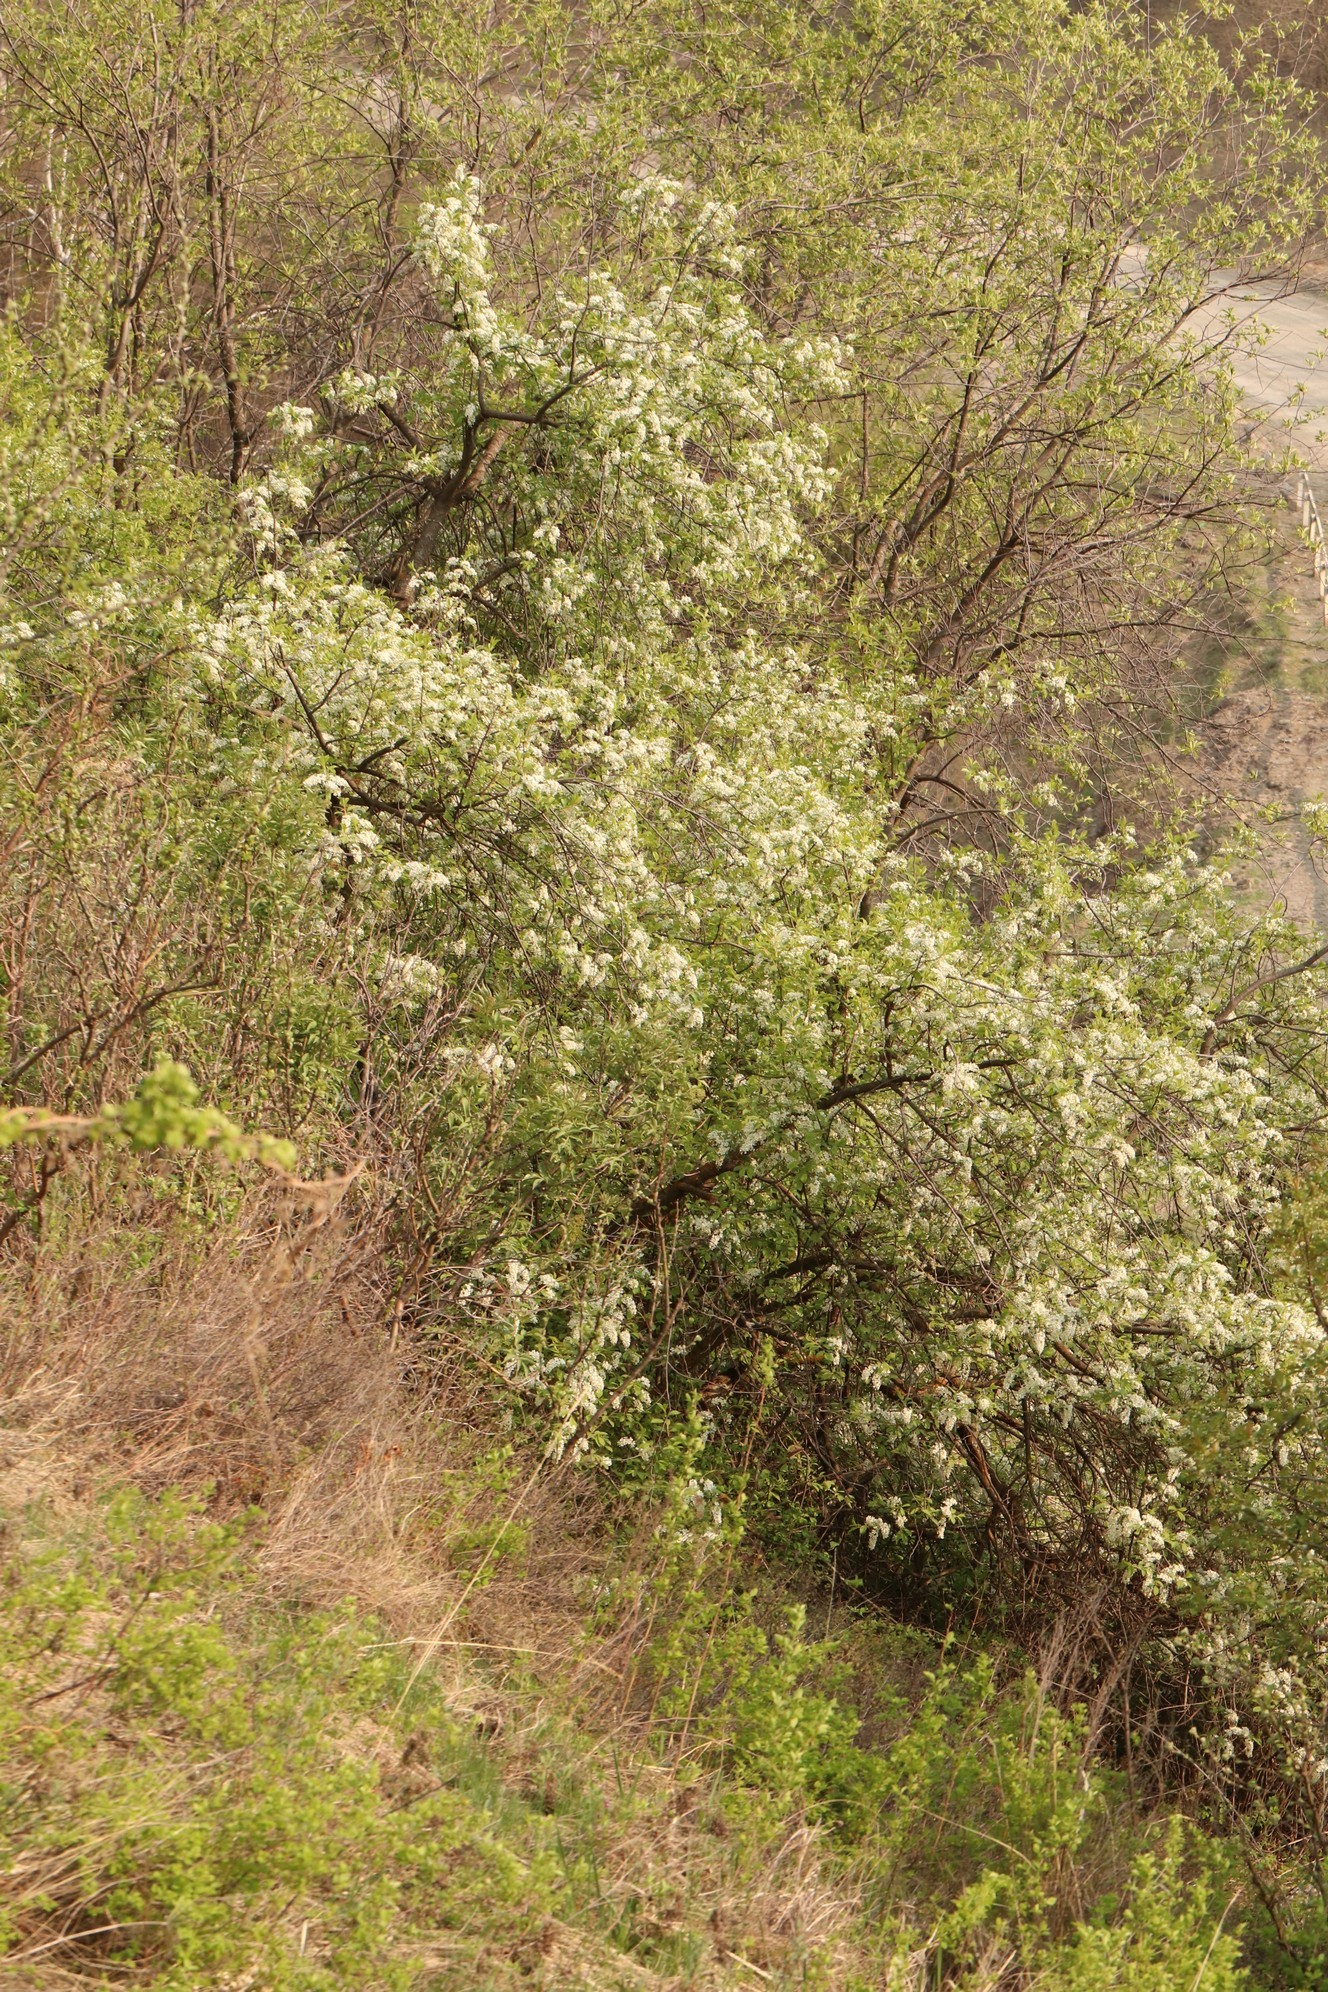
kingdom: Plantae
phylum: Tracheophyta
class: Magnoliopsida
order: Rosales
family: Rosaceae
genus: Prunus
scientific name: Prunus padus
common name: Bird cherry
